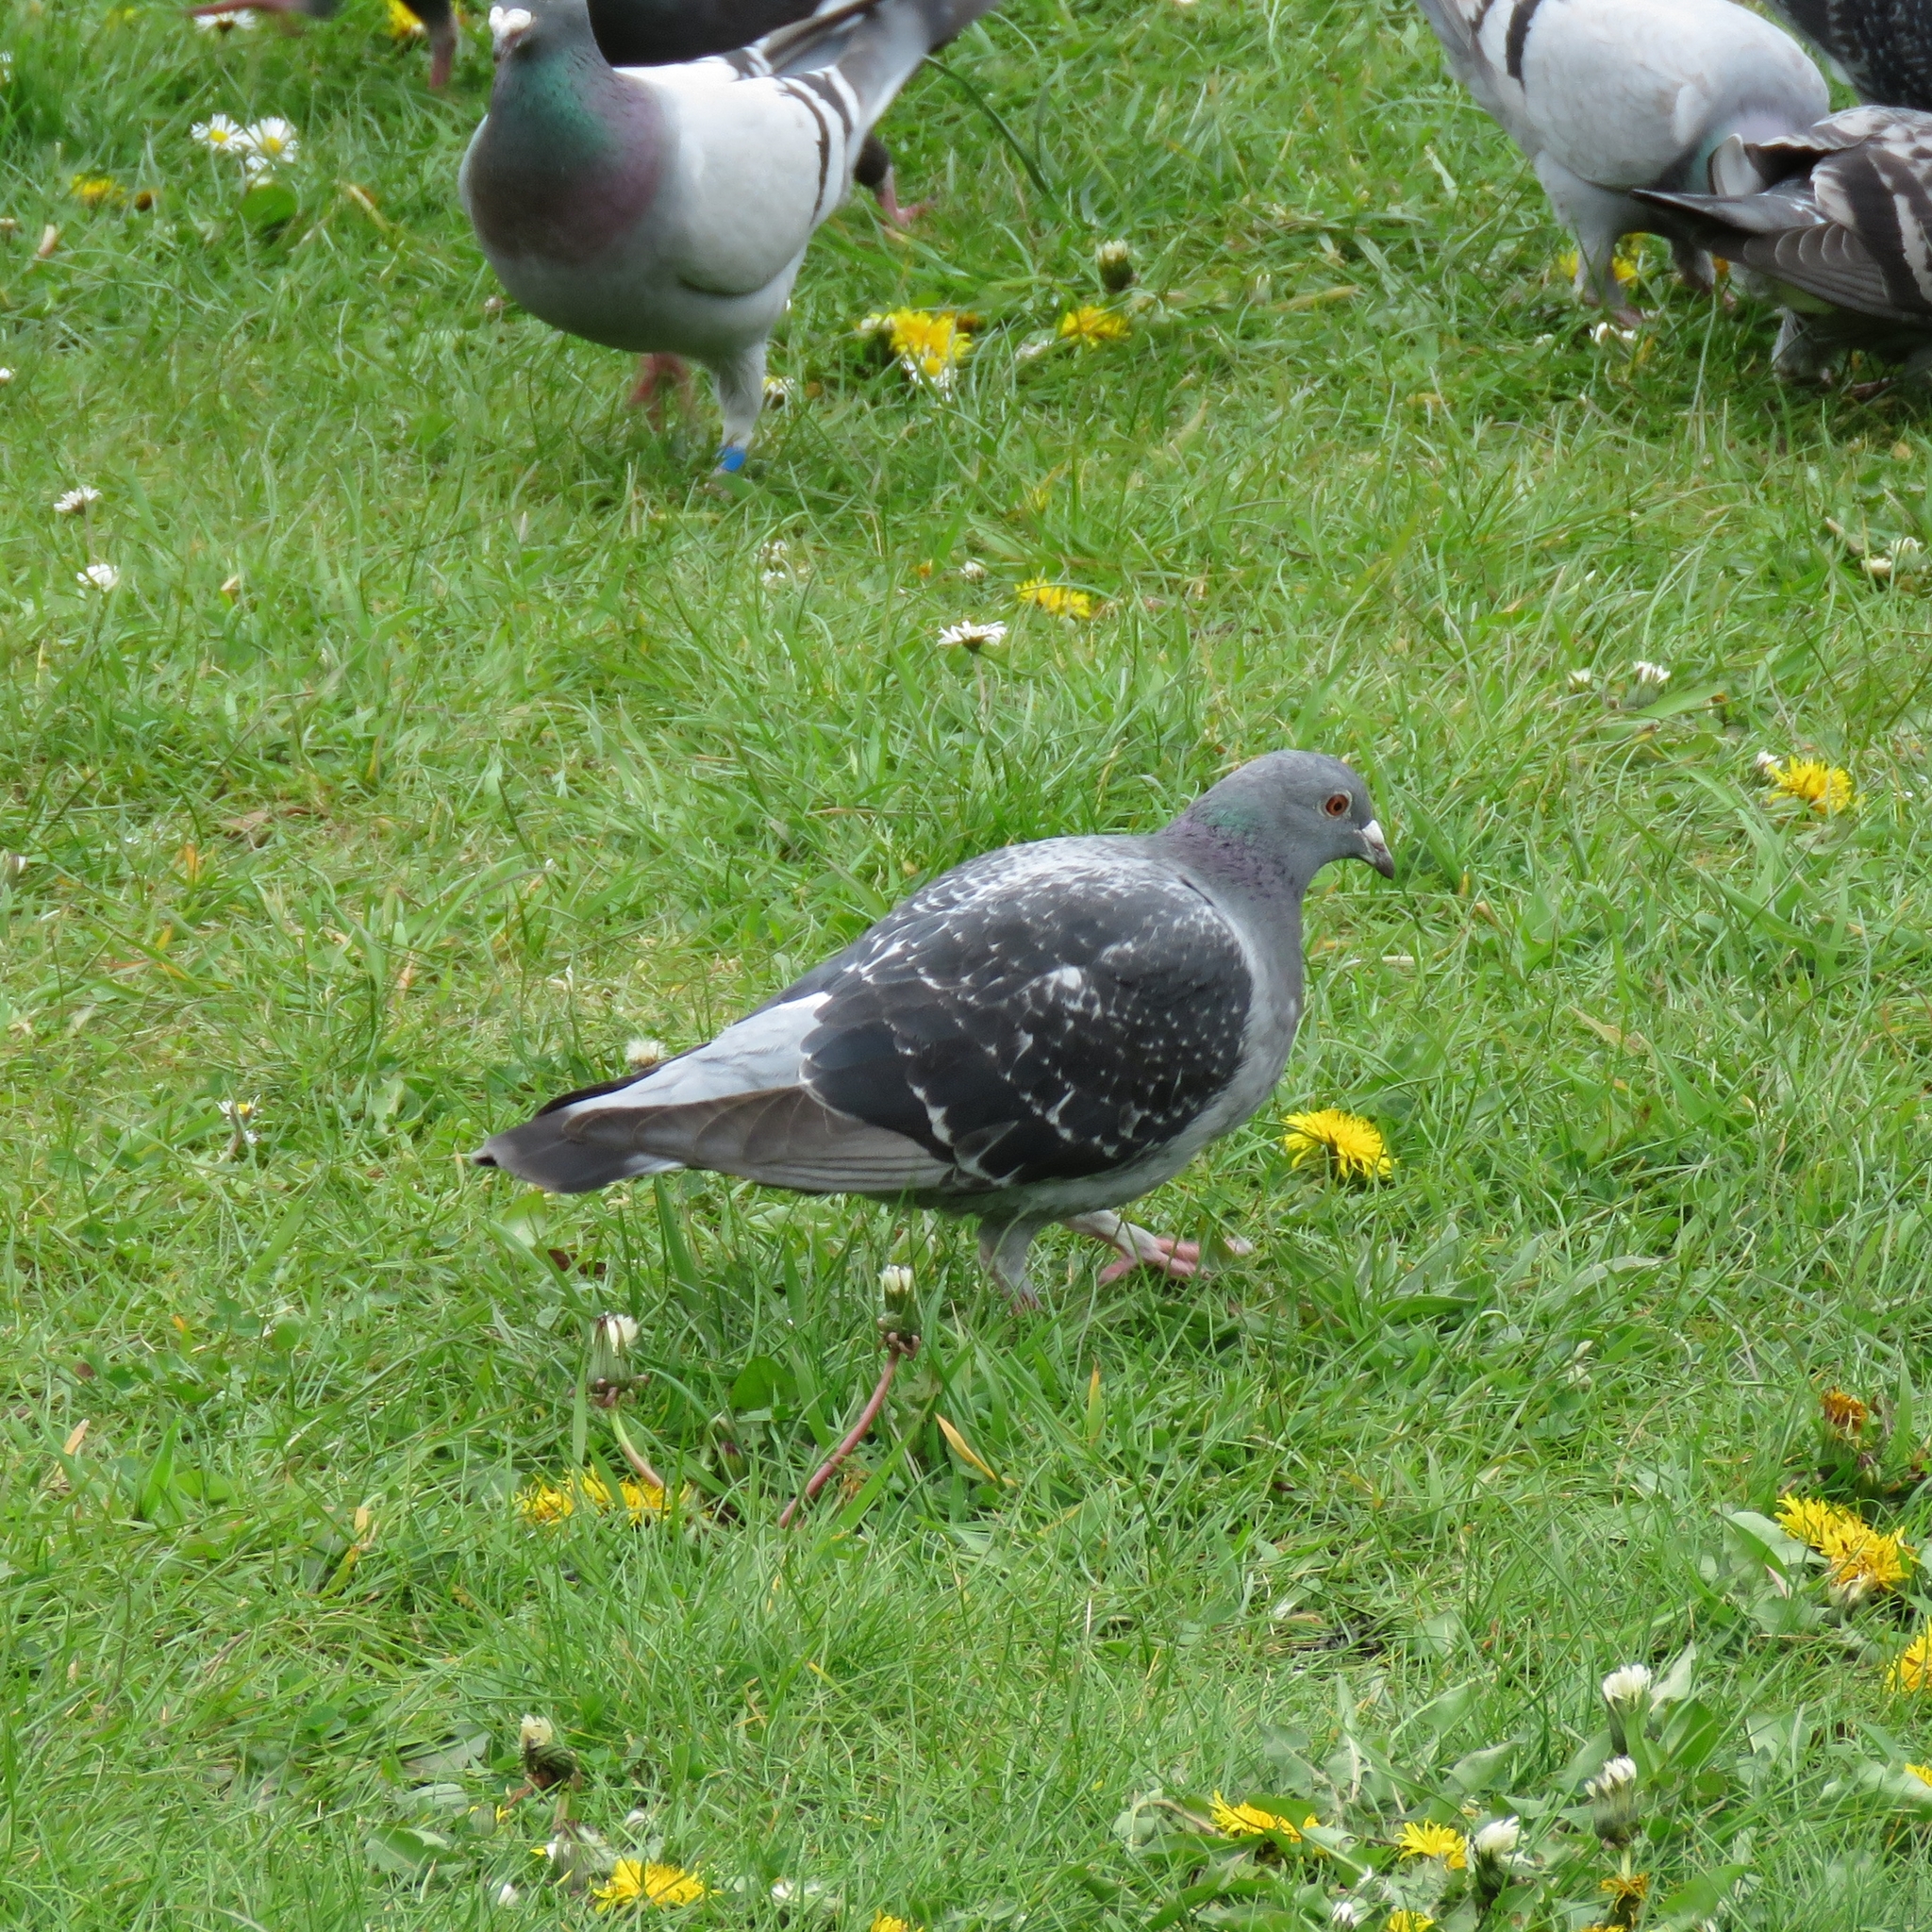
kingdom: Animalia
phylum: Chordata
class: Aves
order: Columbiformes
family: Columbidae
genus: Columba
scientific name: Columba livia
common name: Rock pigeon
